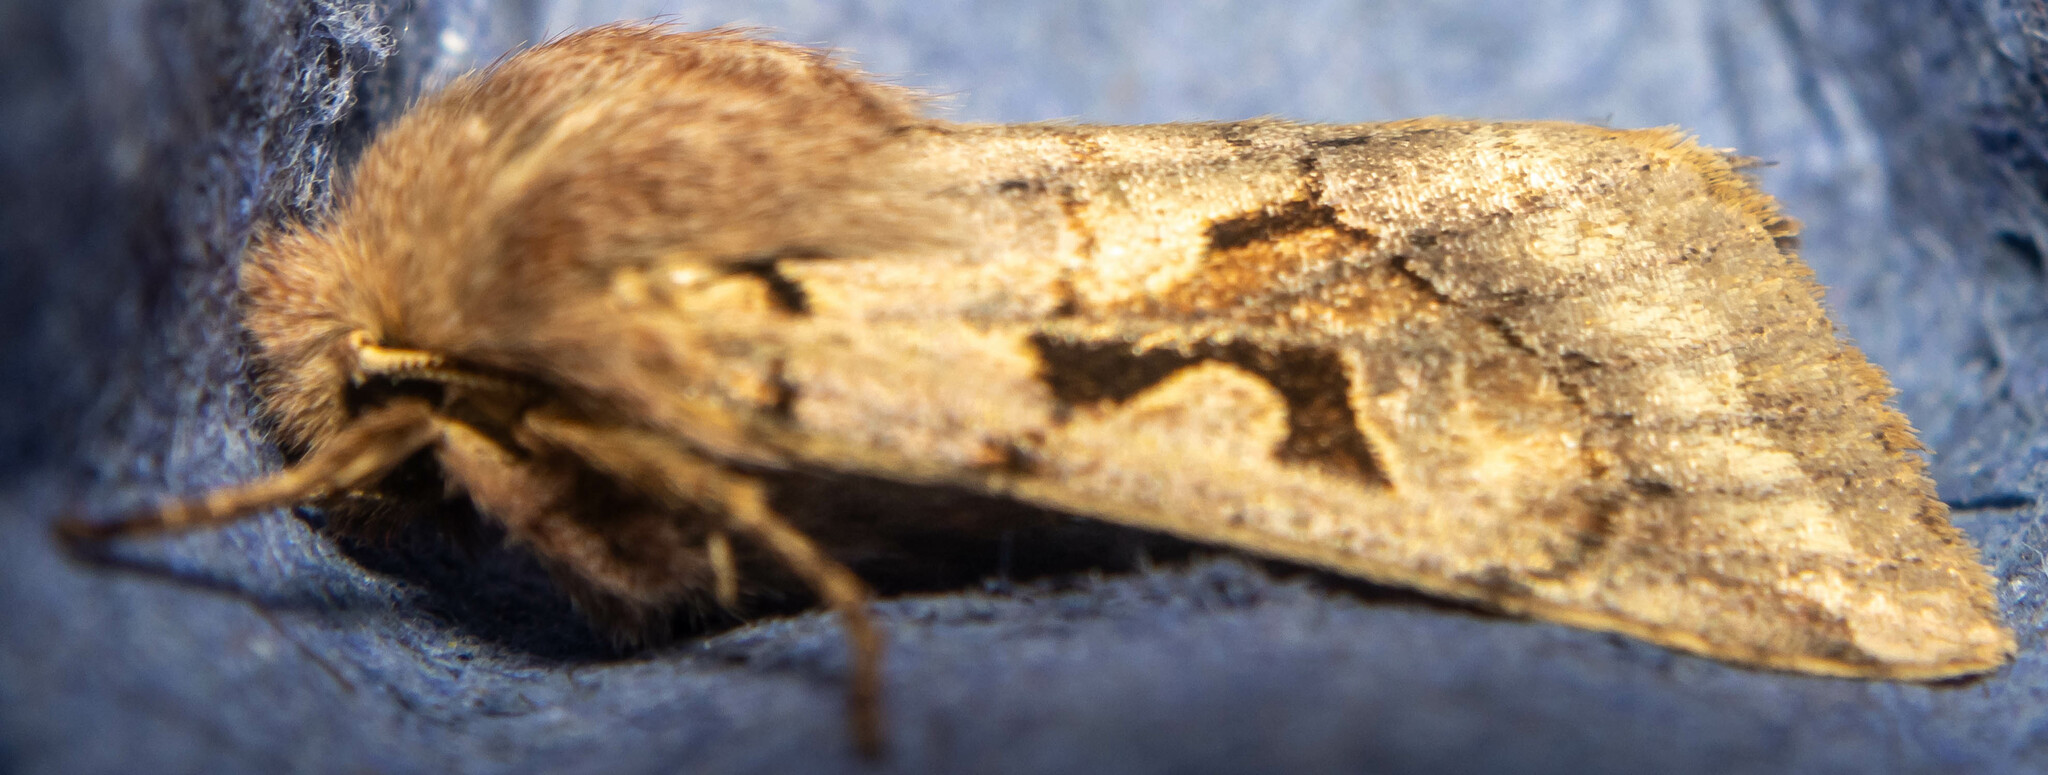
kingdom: Animalia
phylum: Arthropoda
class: Insecta
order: Lepidoptera
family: Noctuidae
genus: Orthosia
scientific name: Orthosia gothica
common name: Hebrew character
